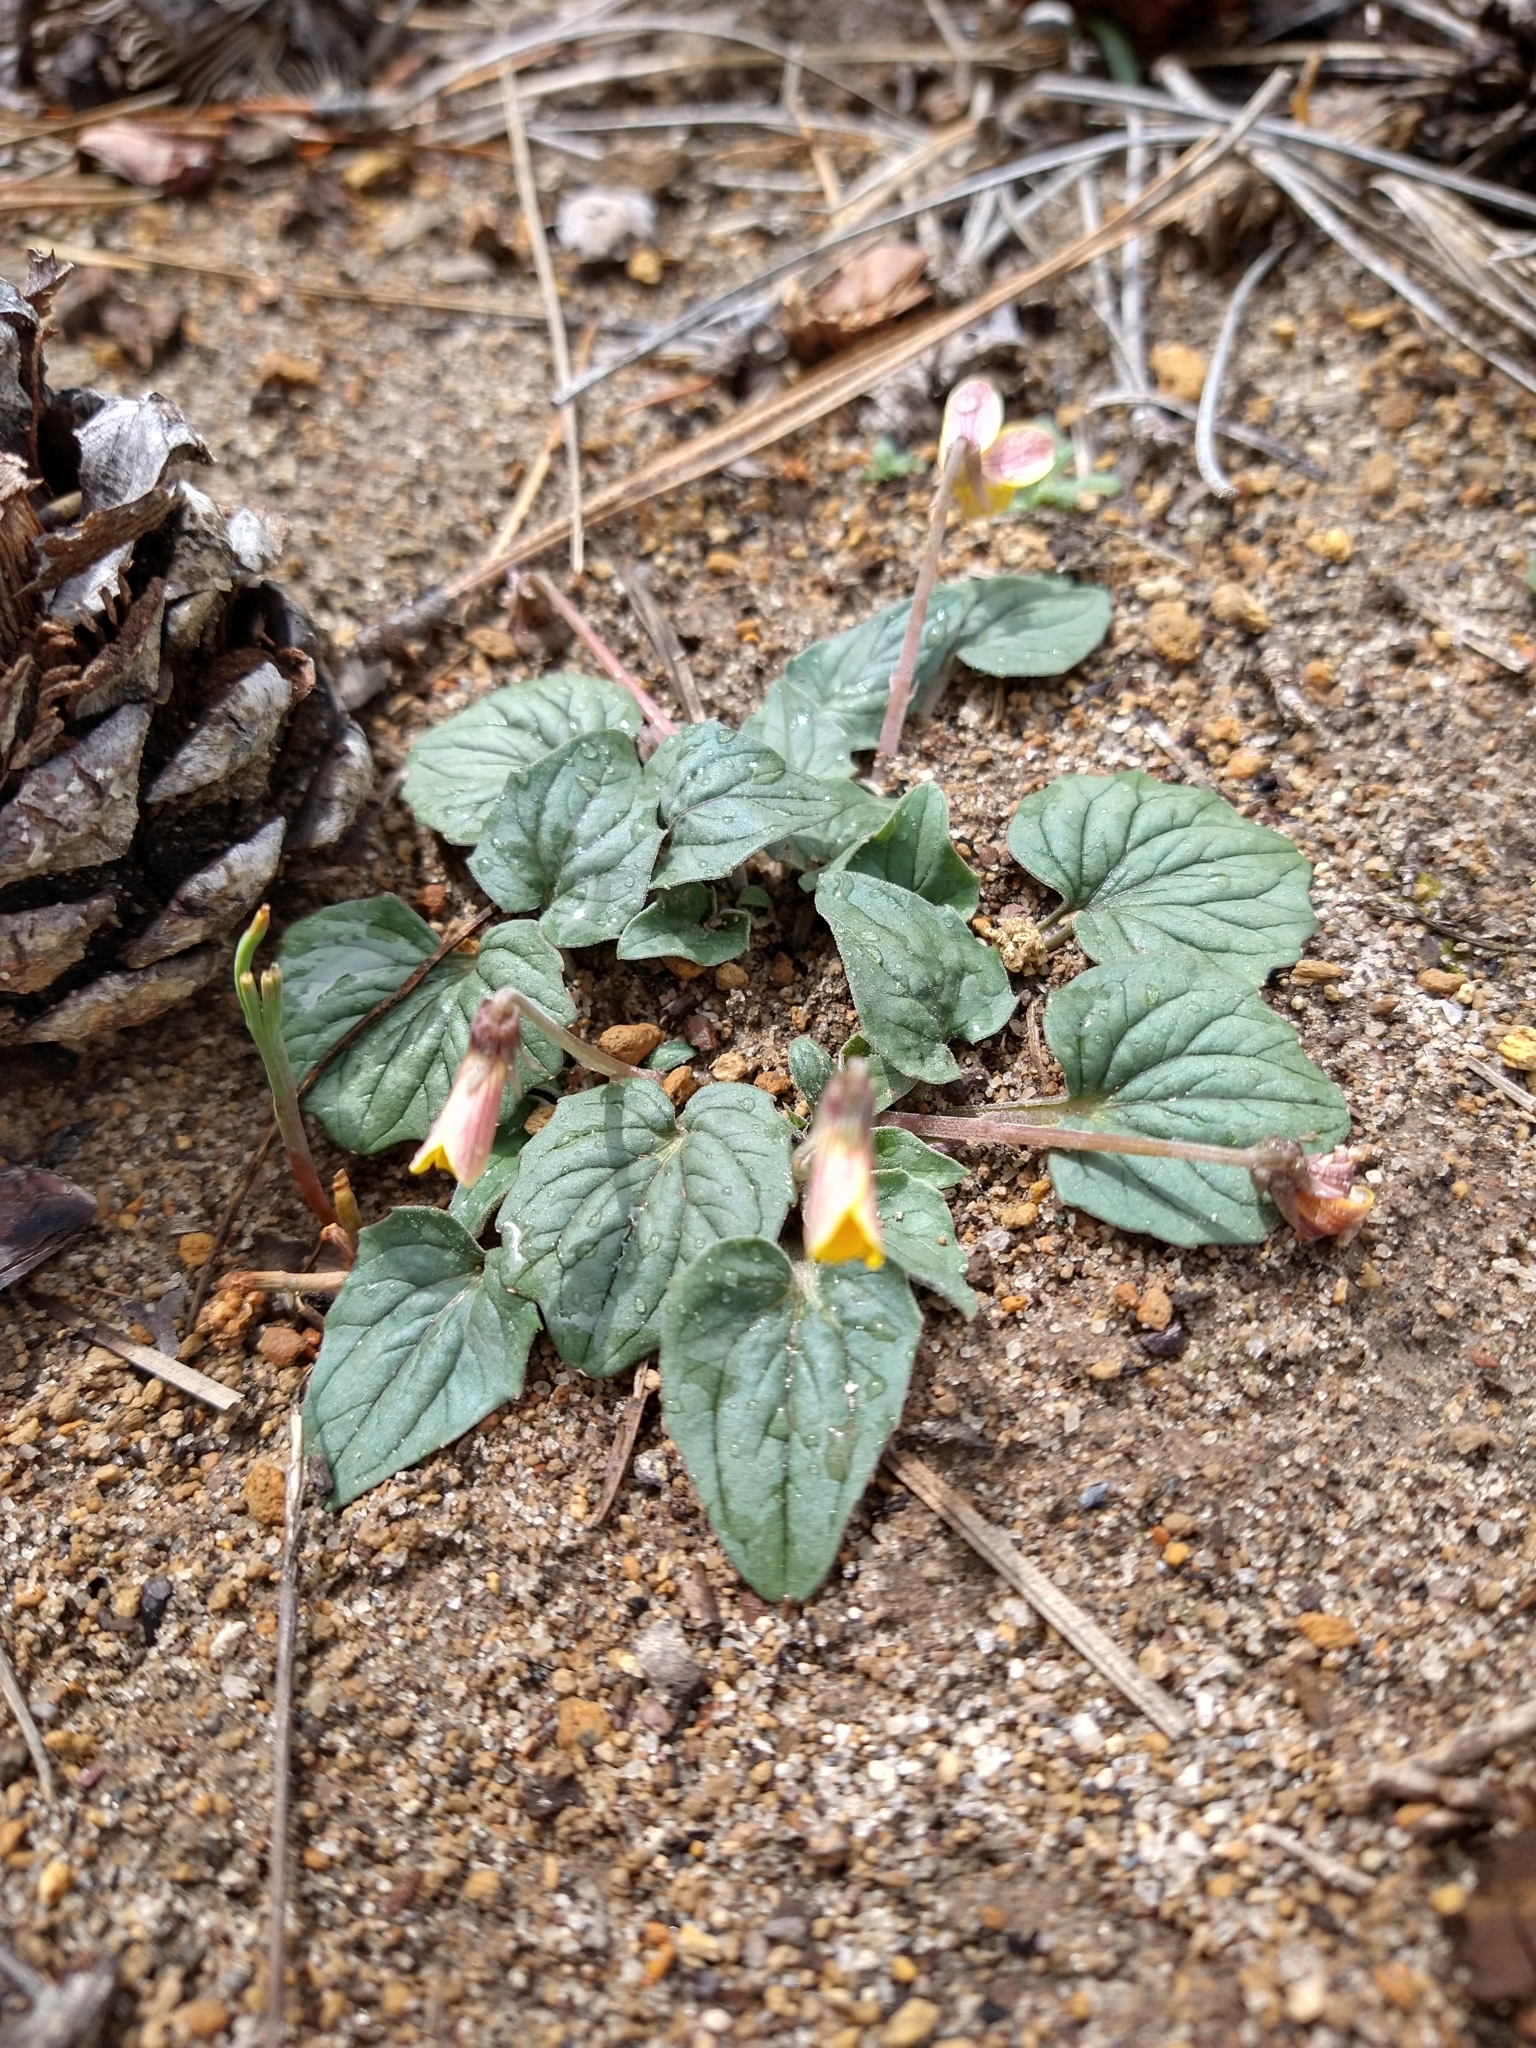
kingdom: Plantae
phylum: Tracheophyta
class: Magnoliopsida
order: Malpighiales
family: Violaceae
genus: Viola
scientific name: Viola purpurea
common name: Pine violet
